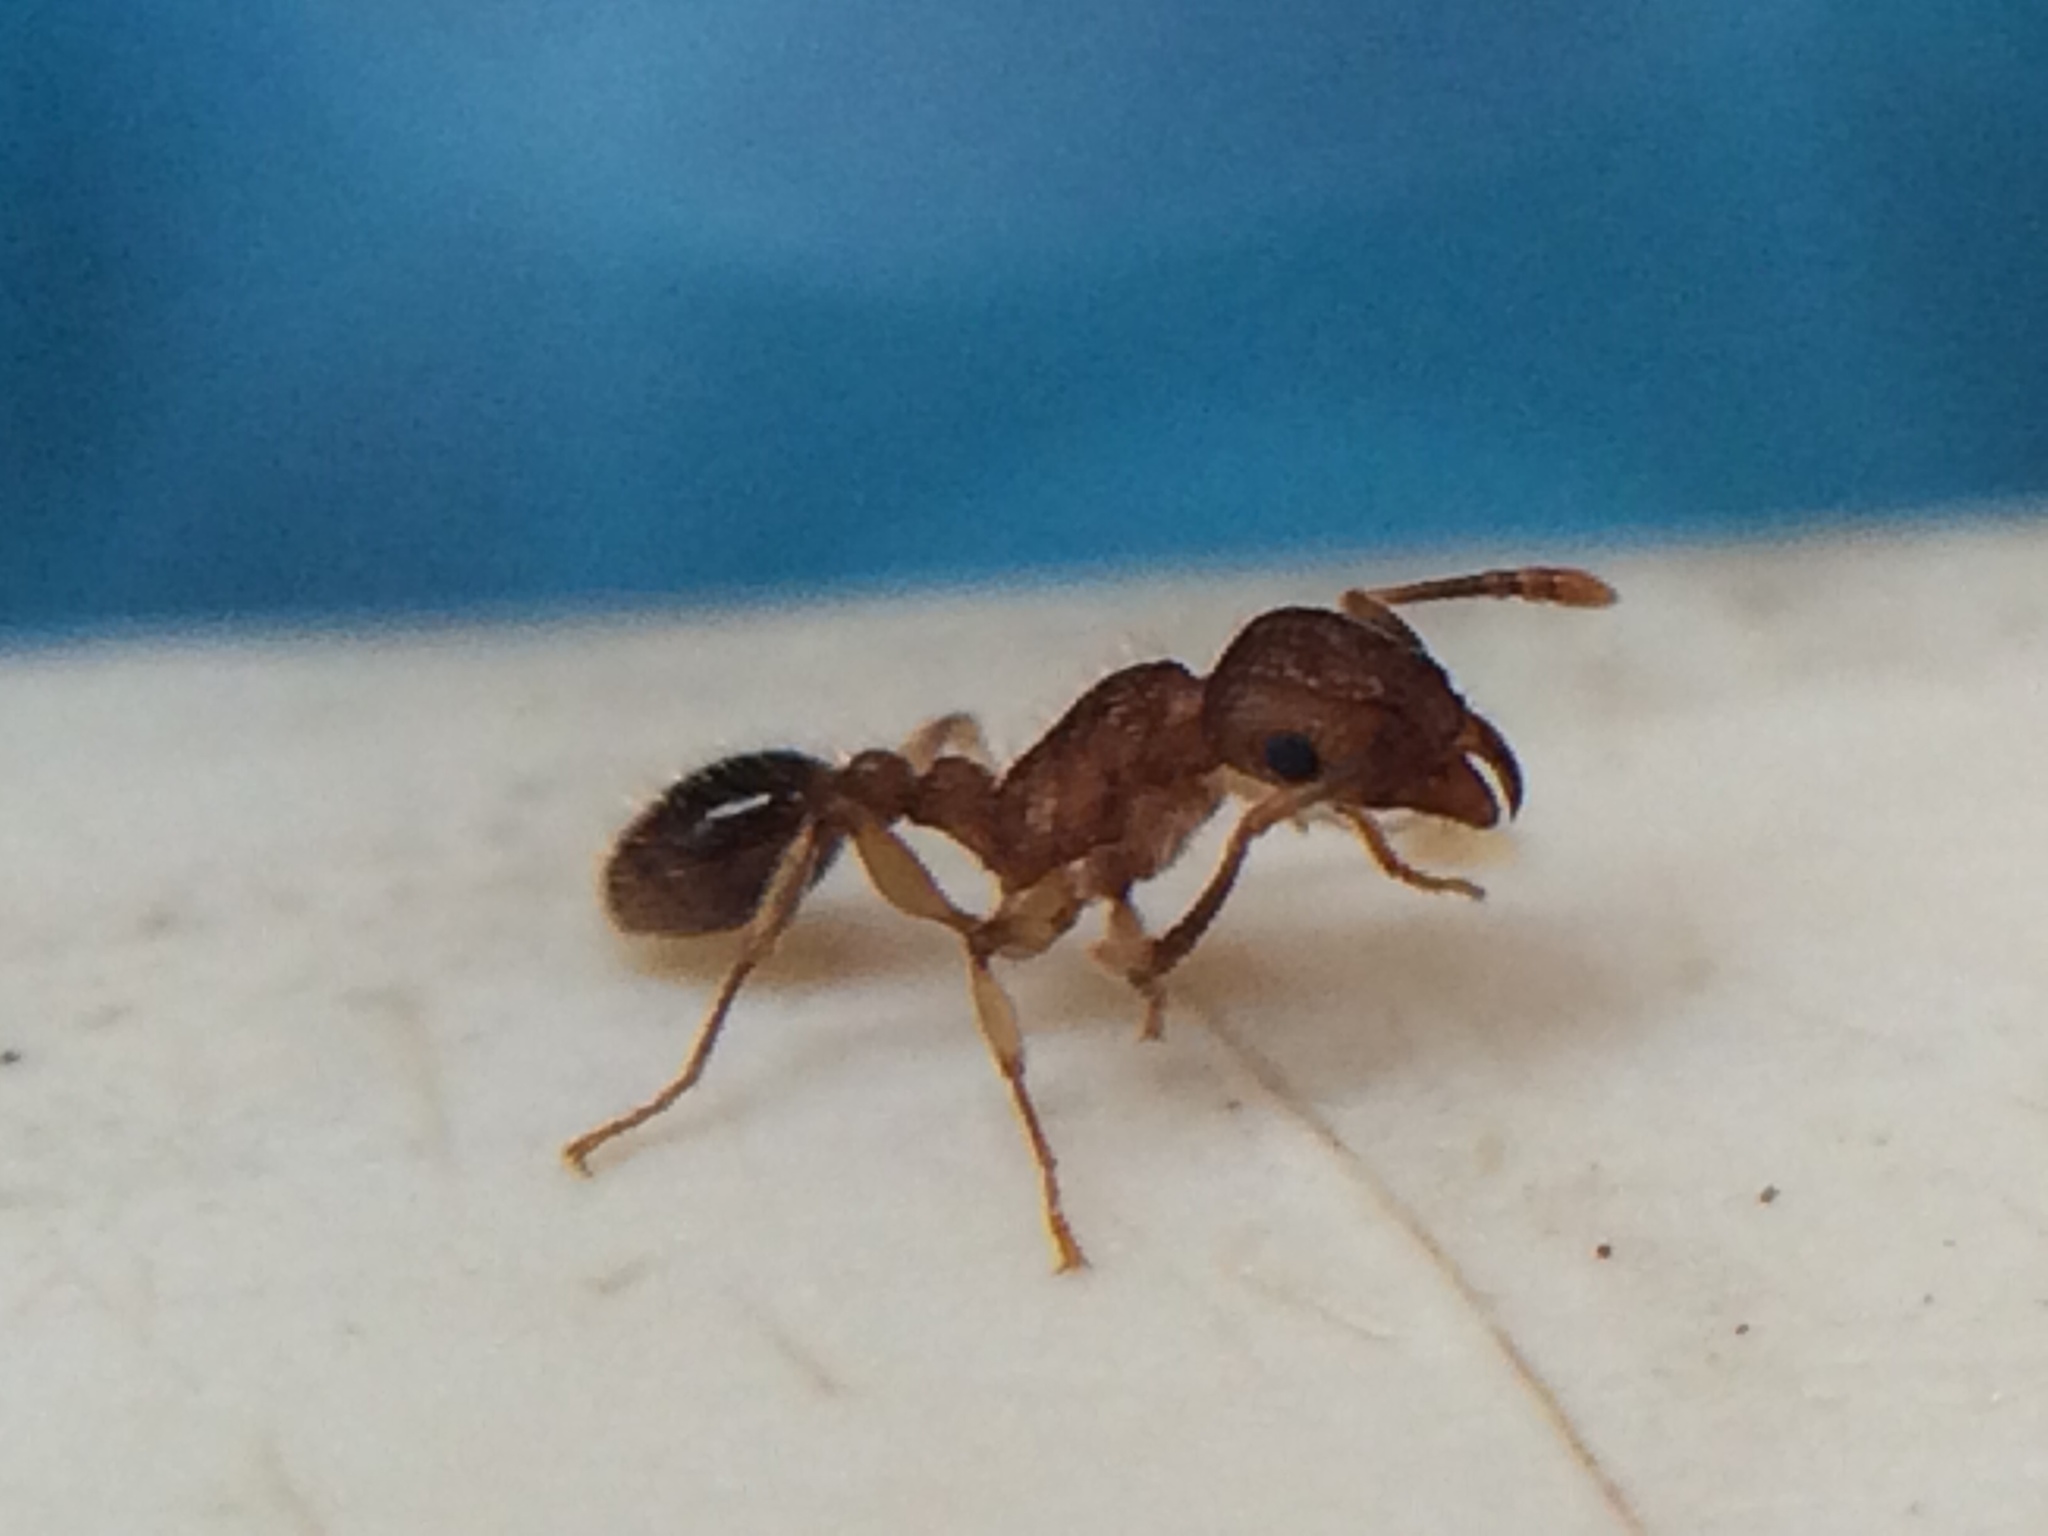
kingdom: Animalia
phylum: Arthropoda
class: Insecta
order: Hymenoptera
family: Formicidae
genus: Tetramorium
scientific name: Tetramorium bicarinatum
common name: Guinea ant
